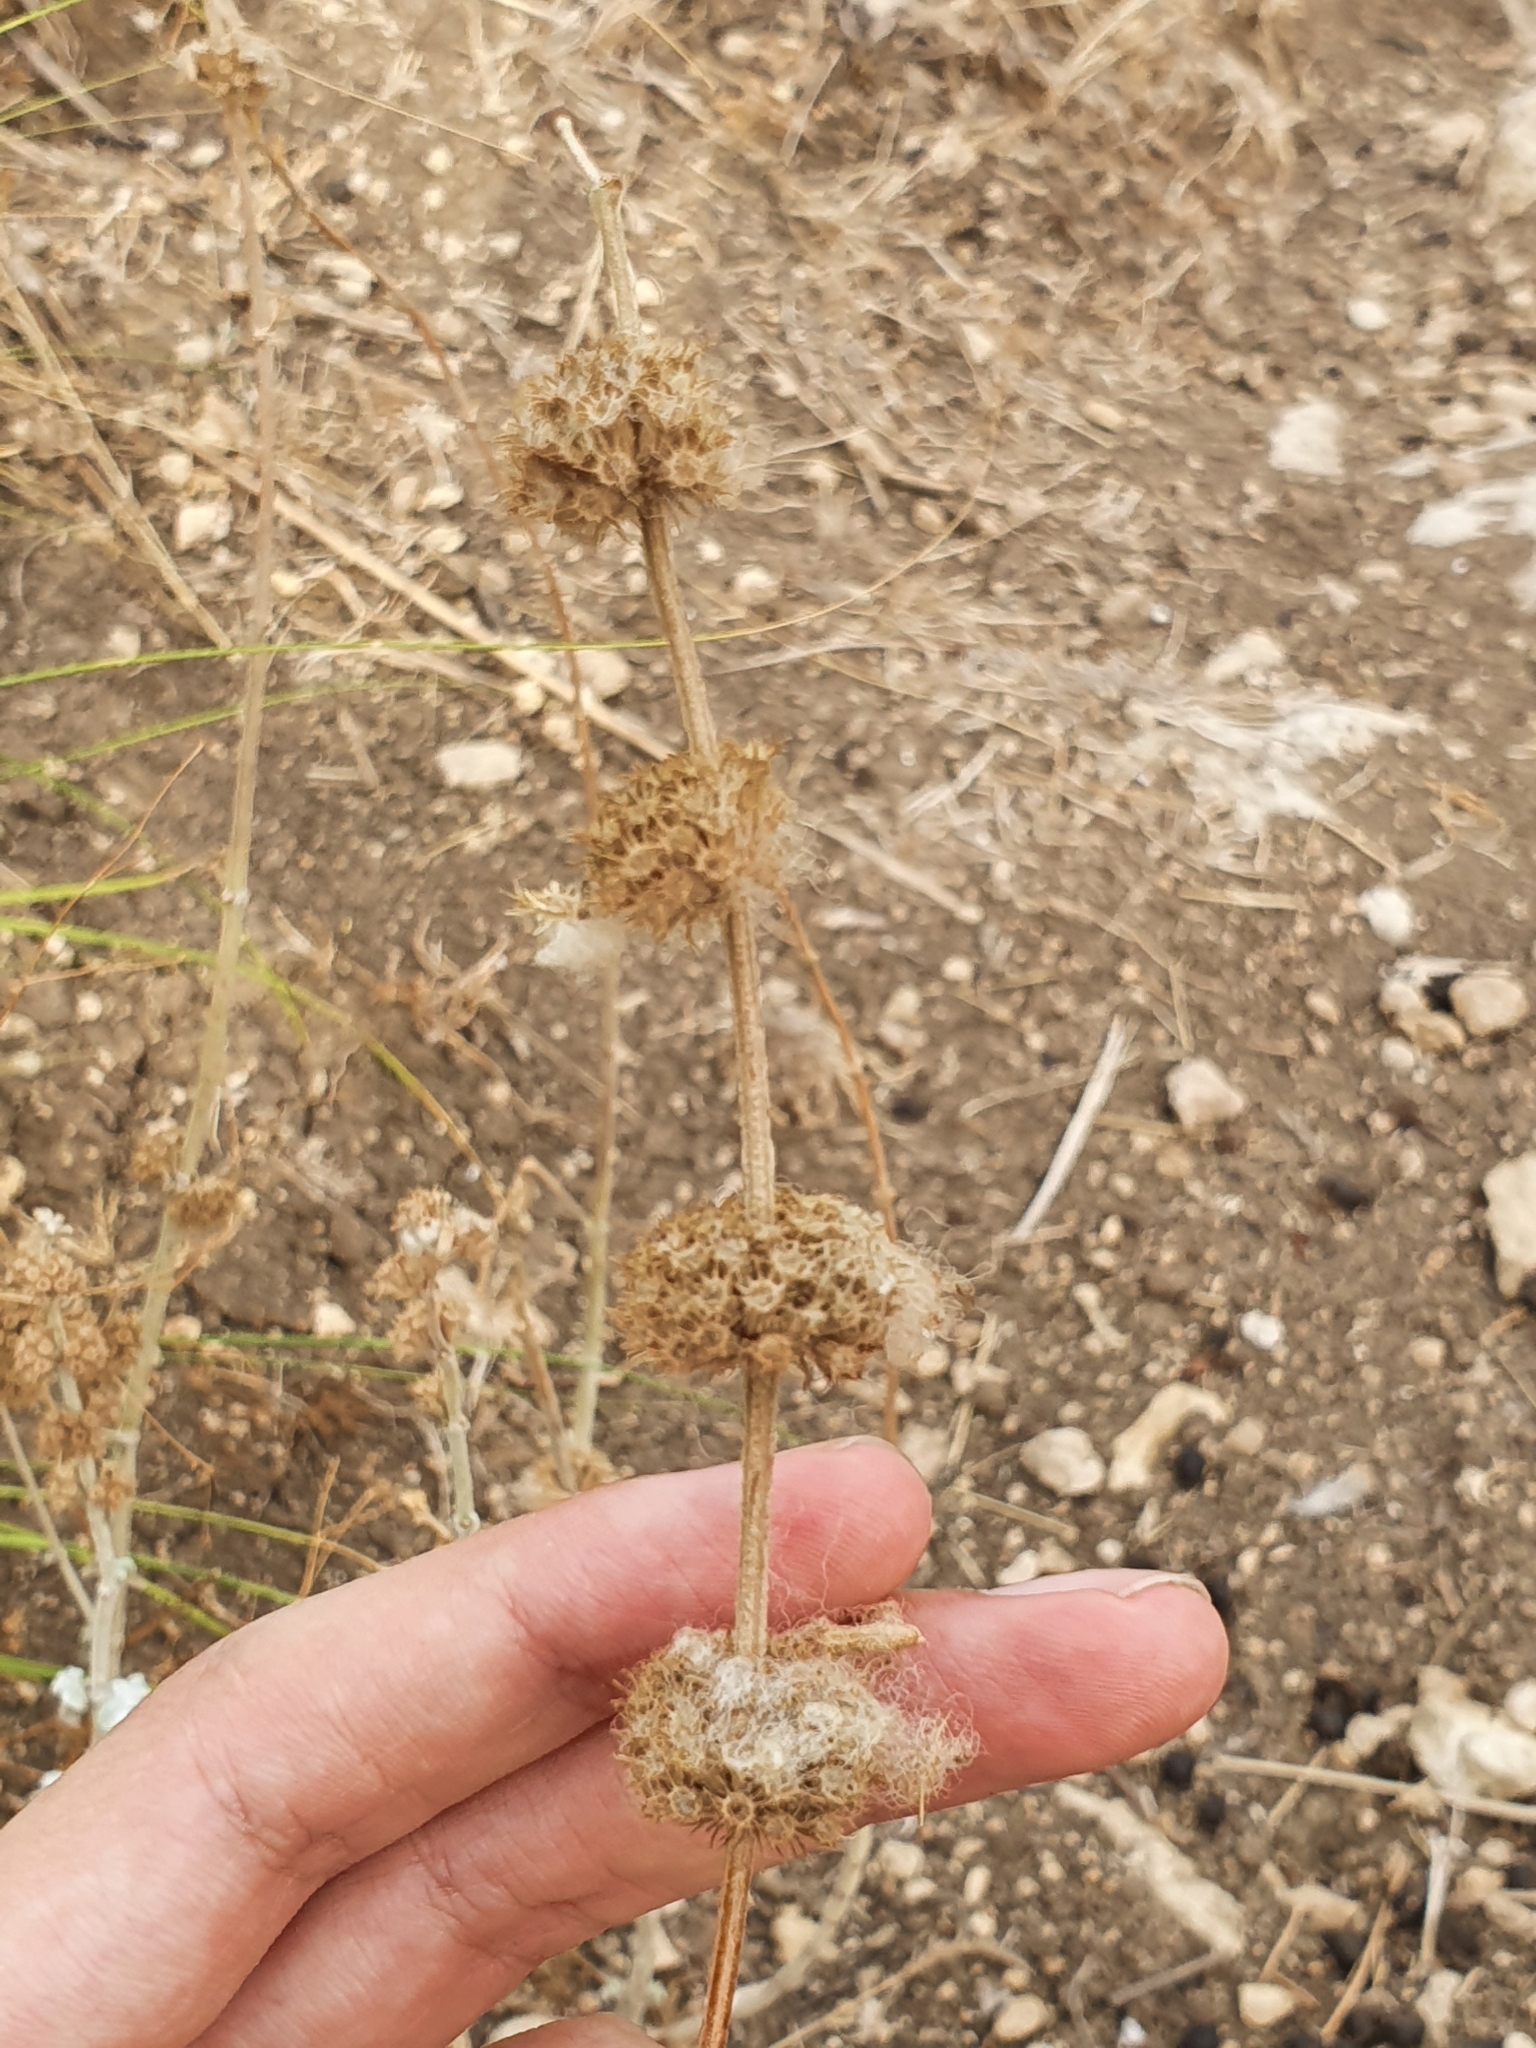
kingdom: Plantae
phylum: Tracheophyta
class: Magnoliopsida
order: Lamiales
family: Lamiaceae
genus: Marrubium
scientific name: Marrubium vulgare
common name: Horehound
